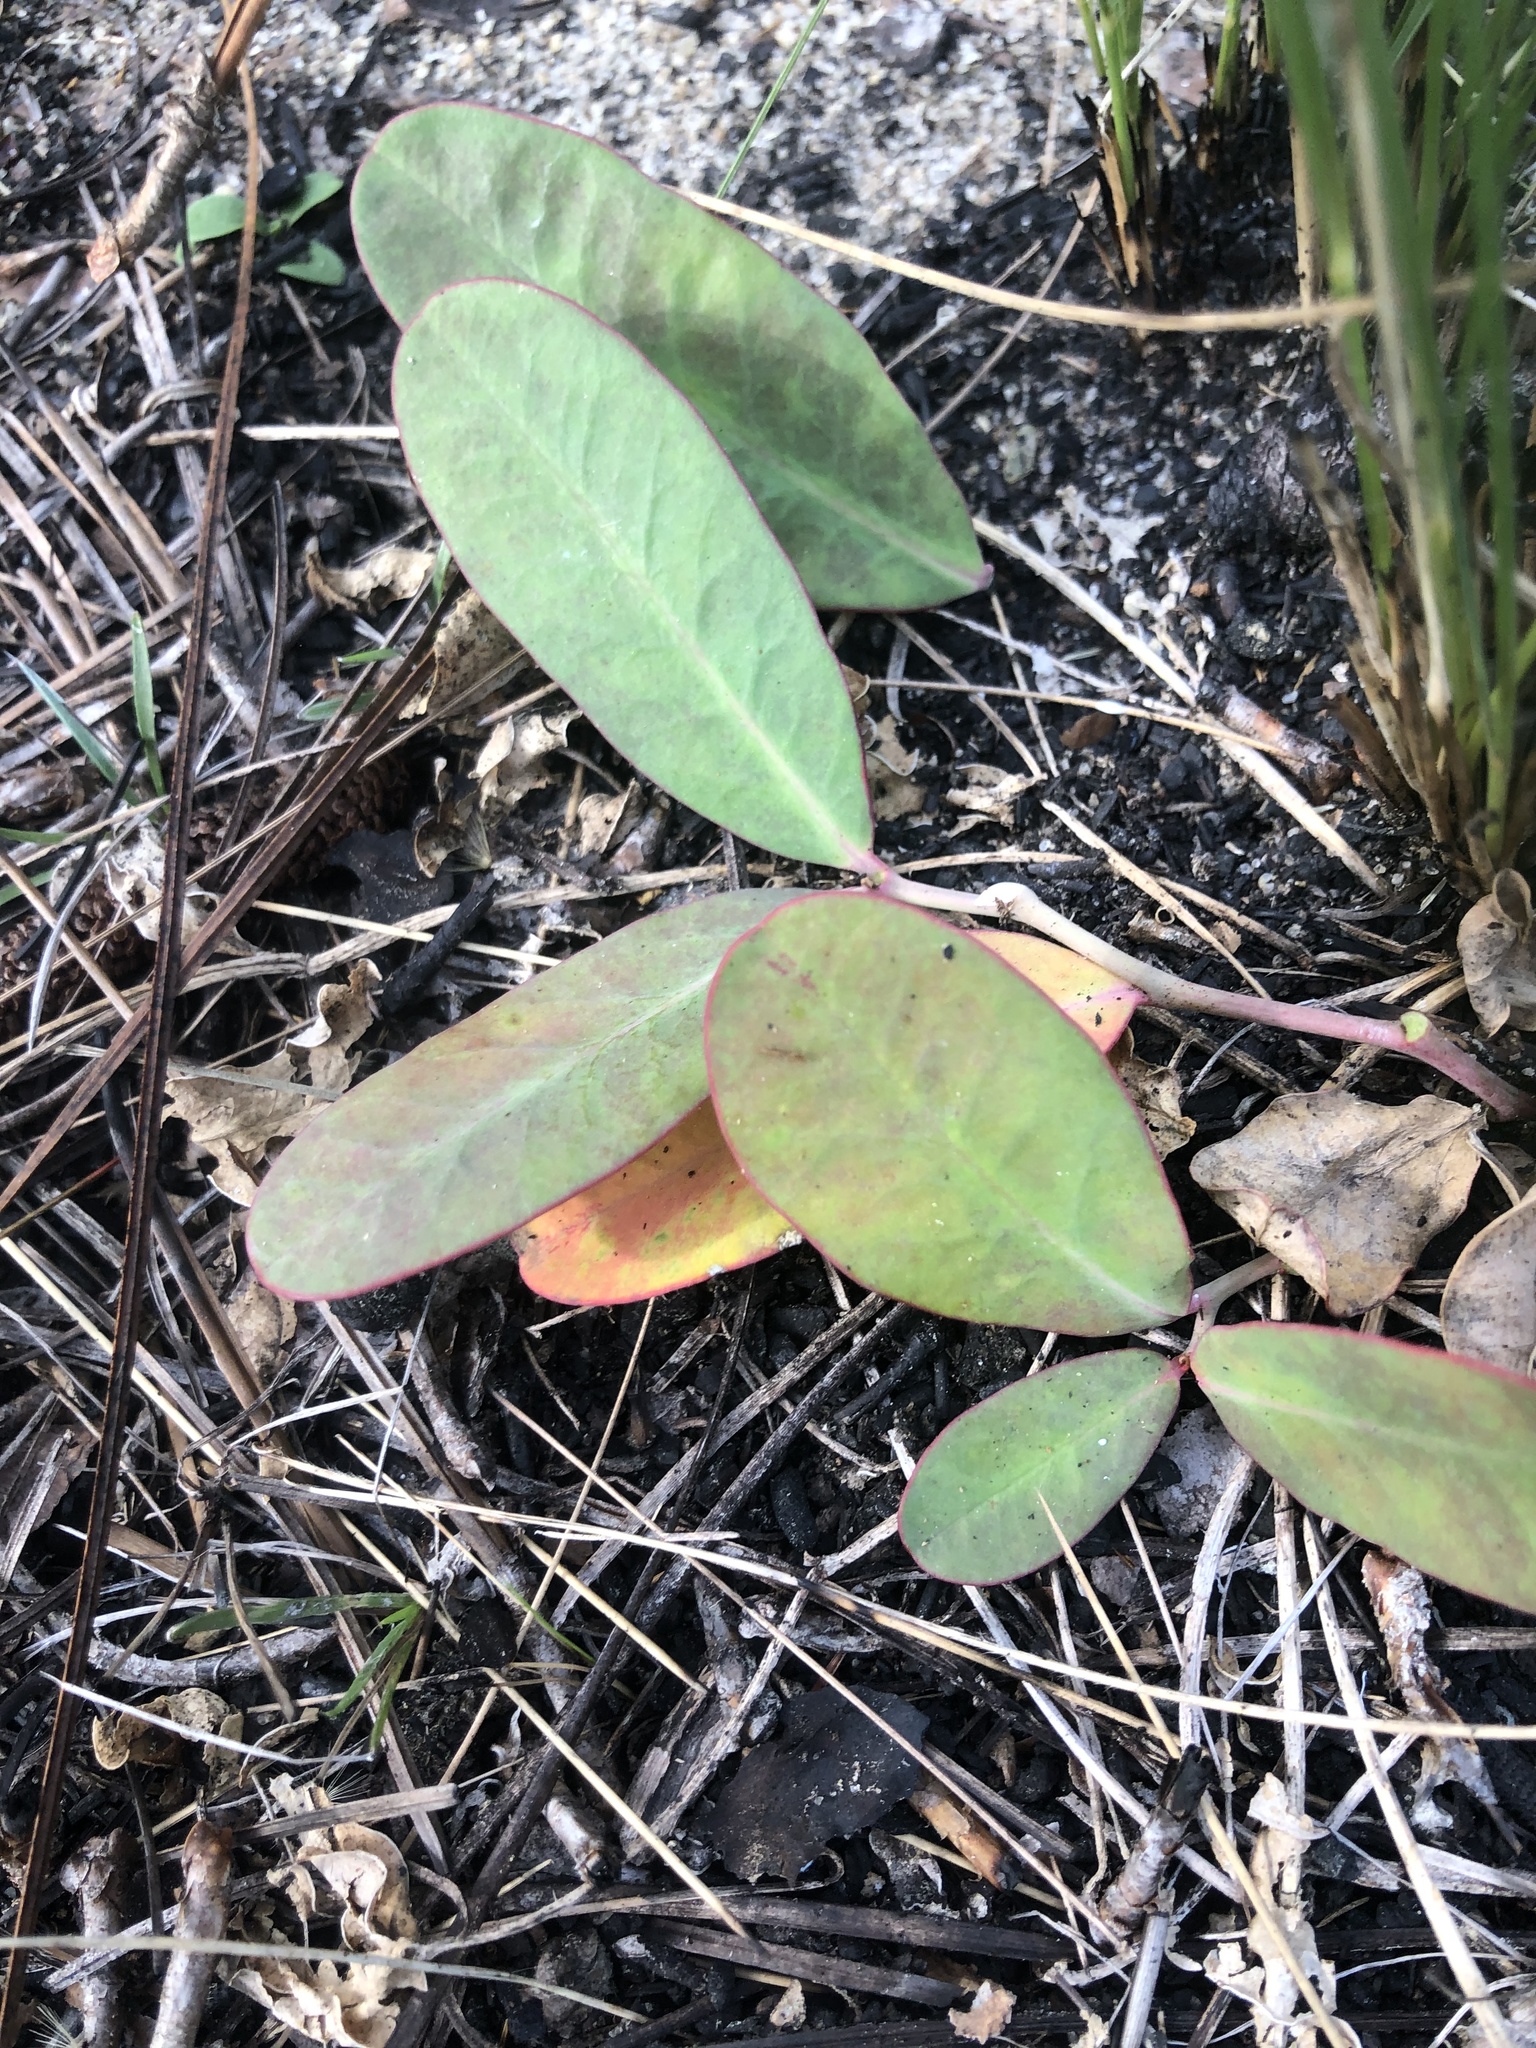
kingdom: Plantae
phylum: Tracheophyta
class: Magnoliopsida
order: Malpighiales
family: Euphorbiaceae
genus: Euphorbia
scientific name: Euphorbia ipecacuanhae
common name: Carolina ipecac
